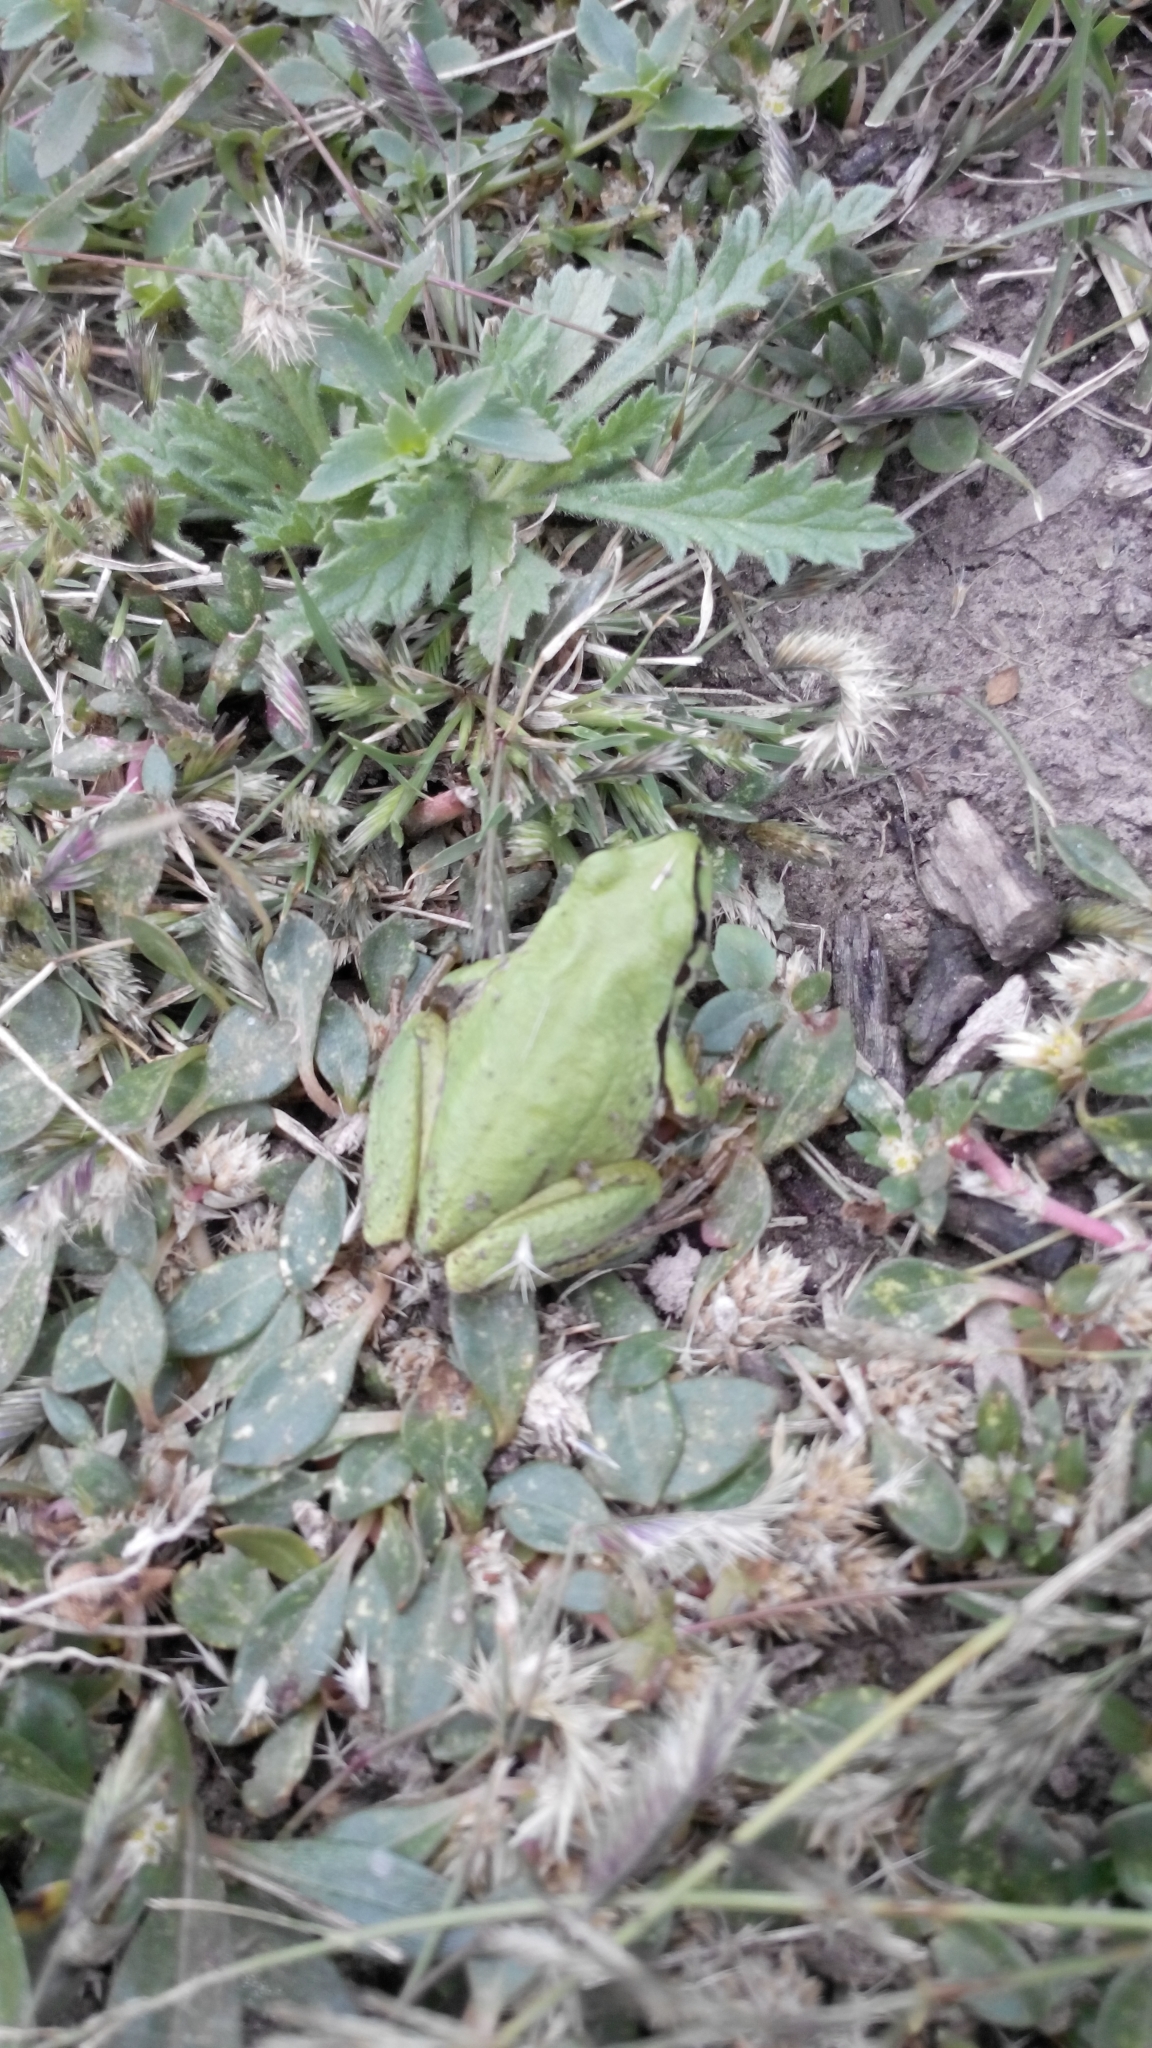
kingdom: Animalia
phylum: Chordata
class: Amphibia
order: Anura
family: Hylidae
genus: Dryophytes
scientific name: Dryophytes eximius
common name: Mountain treefrog
